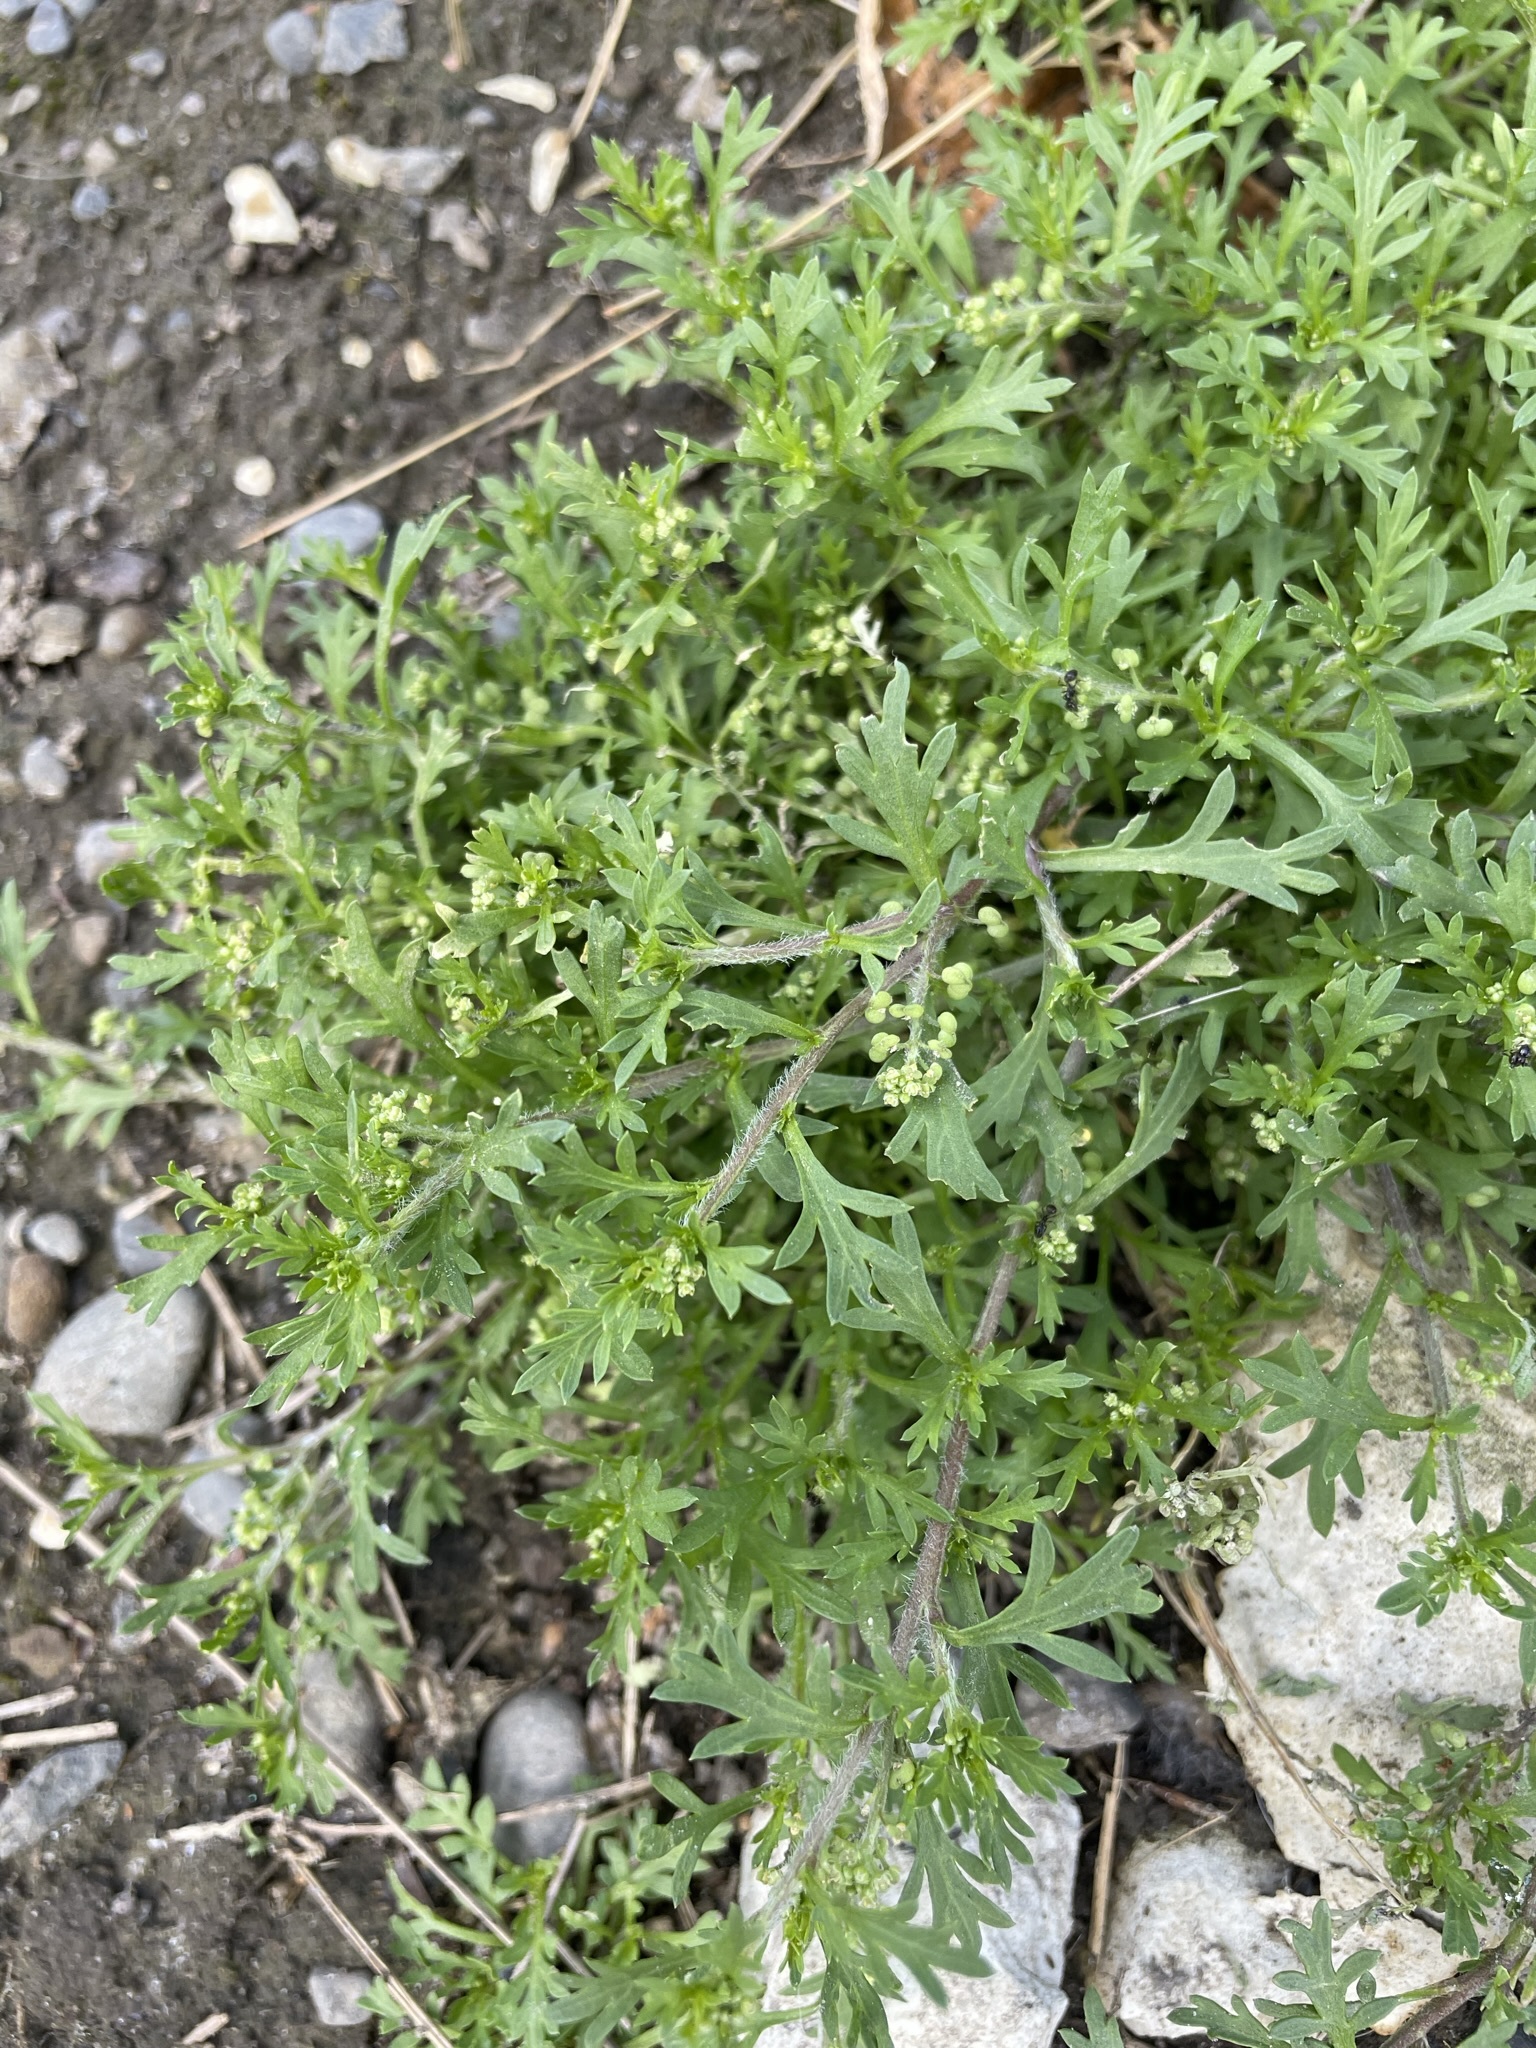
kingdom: Plantae
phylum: Tracheophyta
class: Magnoliopsida
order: Brassicales
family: Brassicaceae
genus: Lepidium
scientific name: Lepidium didymum
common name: Lesser swinecress
